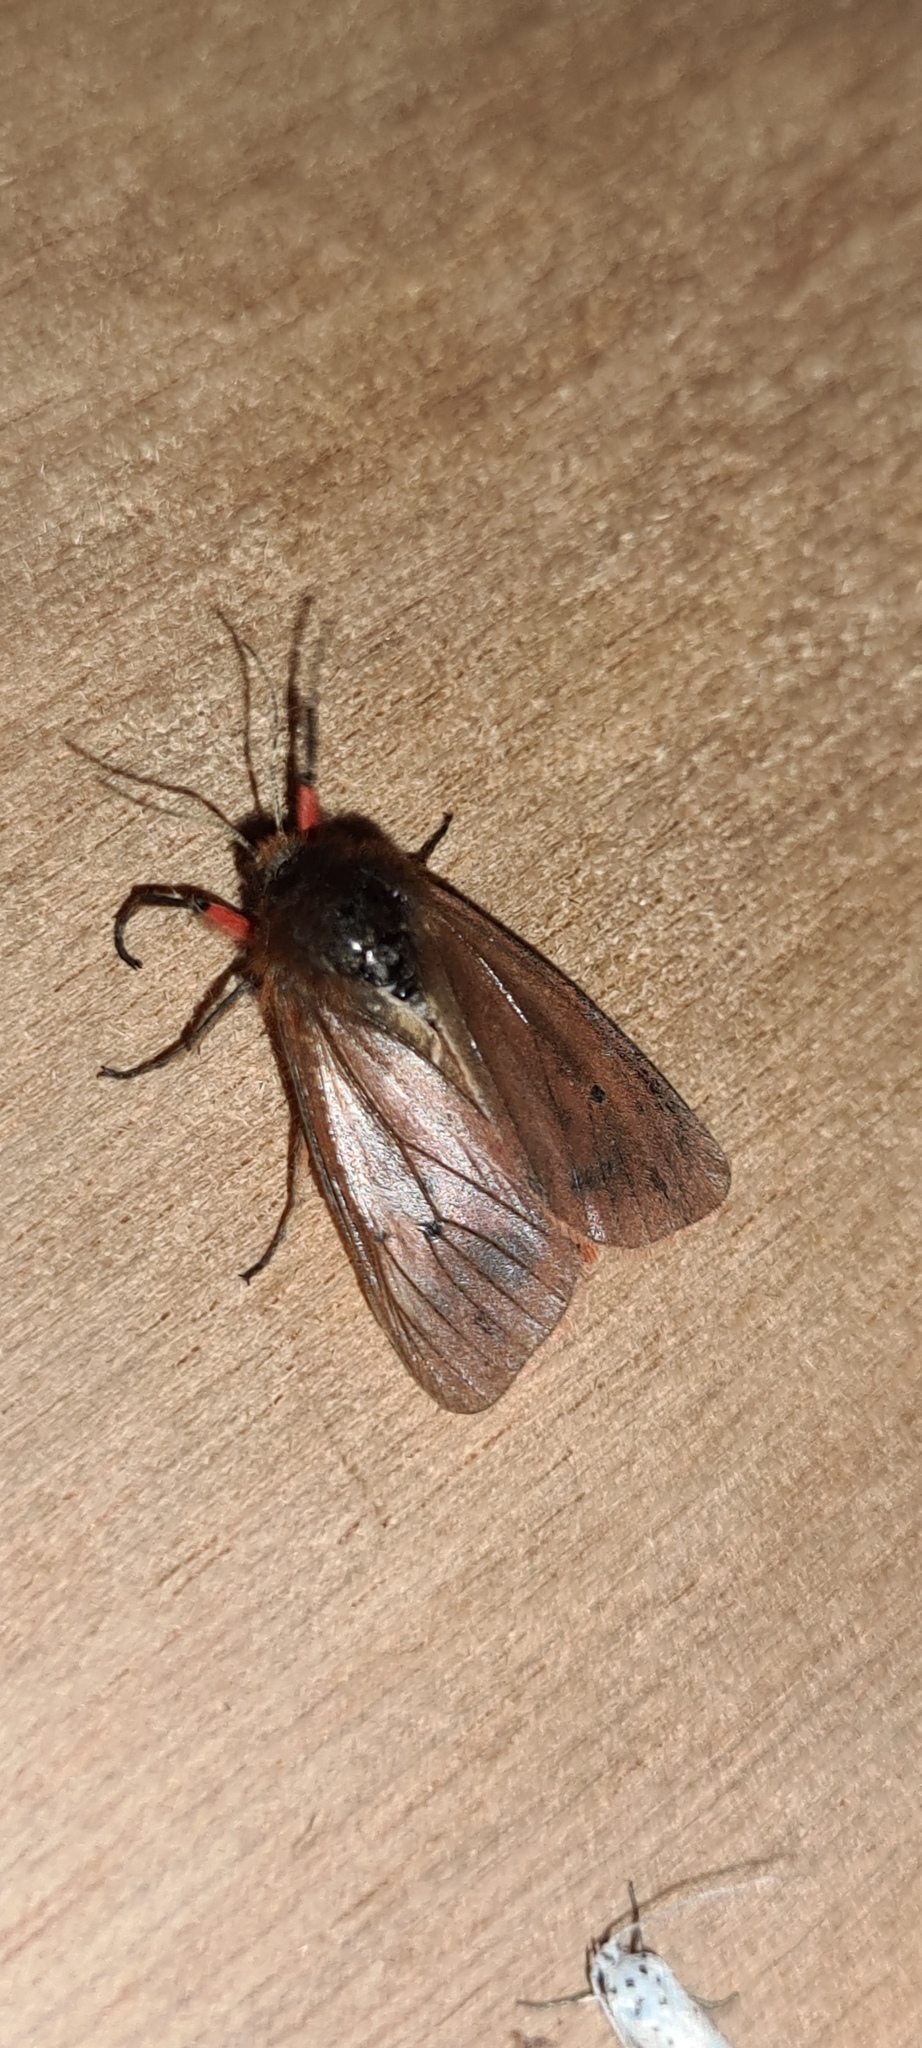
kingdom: Animalia
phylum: Arthropoda
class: Insecta
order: Lepidoptera
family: Erebidae
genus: Phragmatobia
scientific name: Phragmatobia fuliginosa
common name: Ruby tiger
